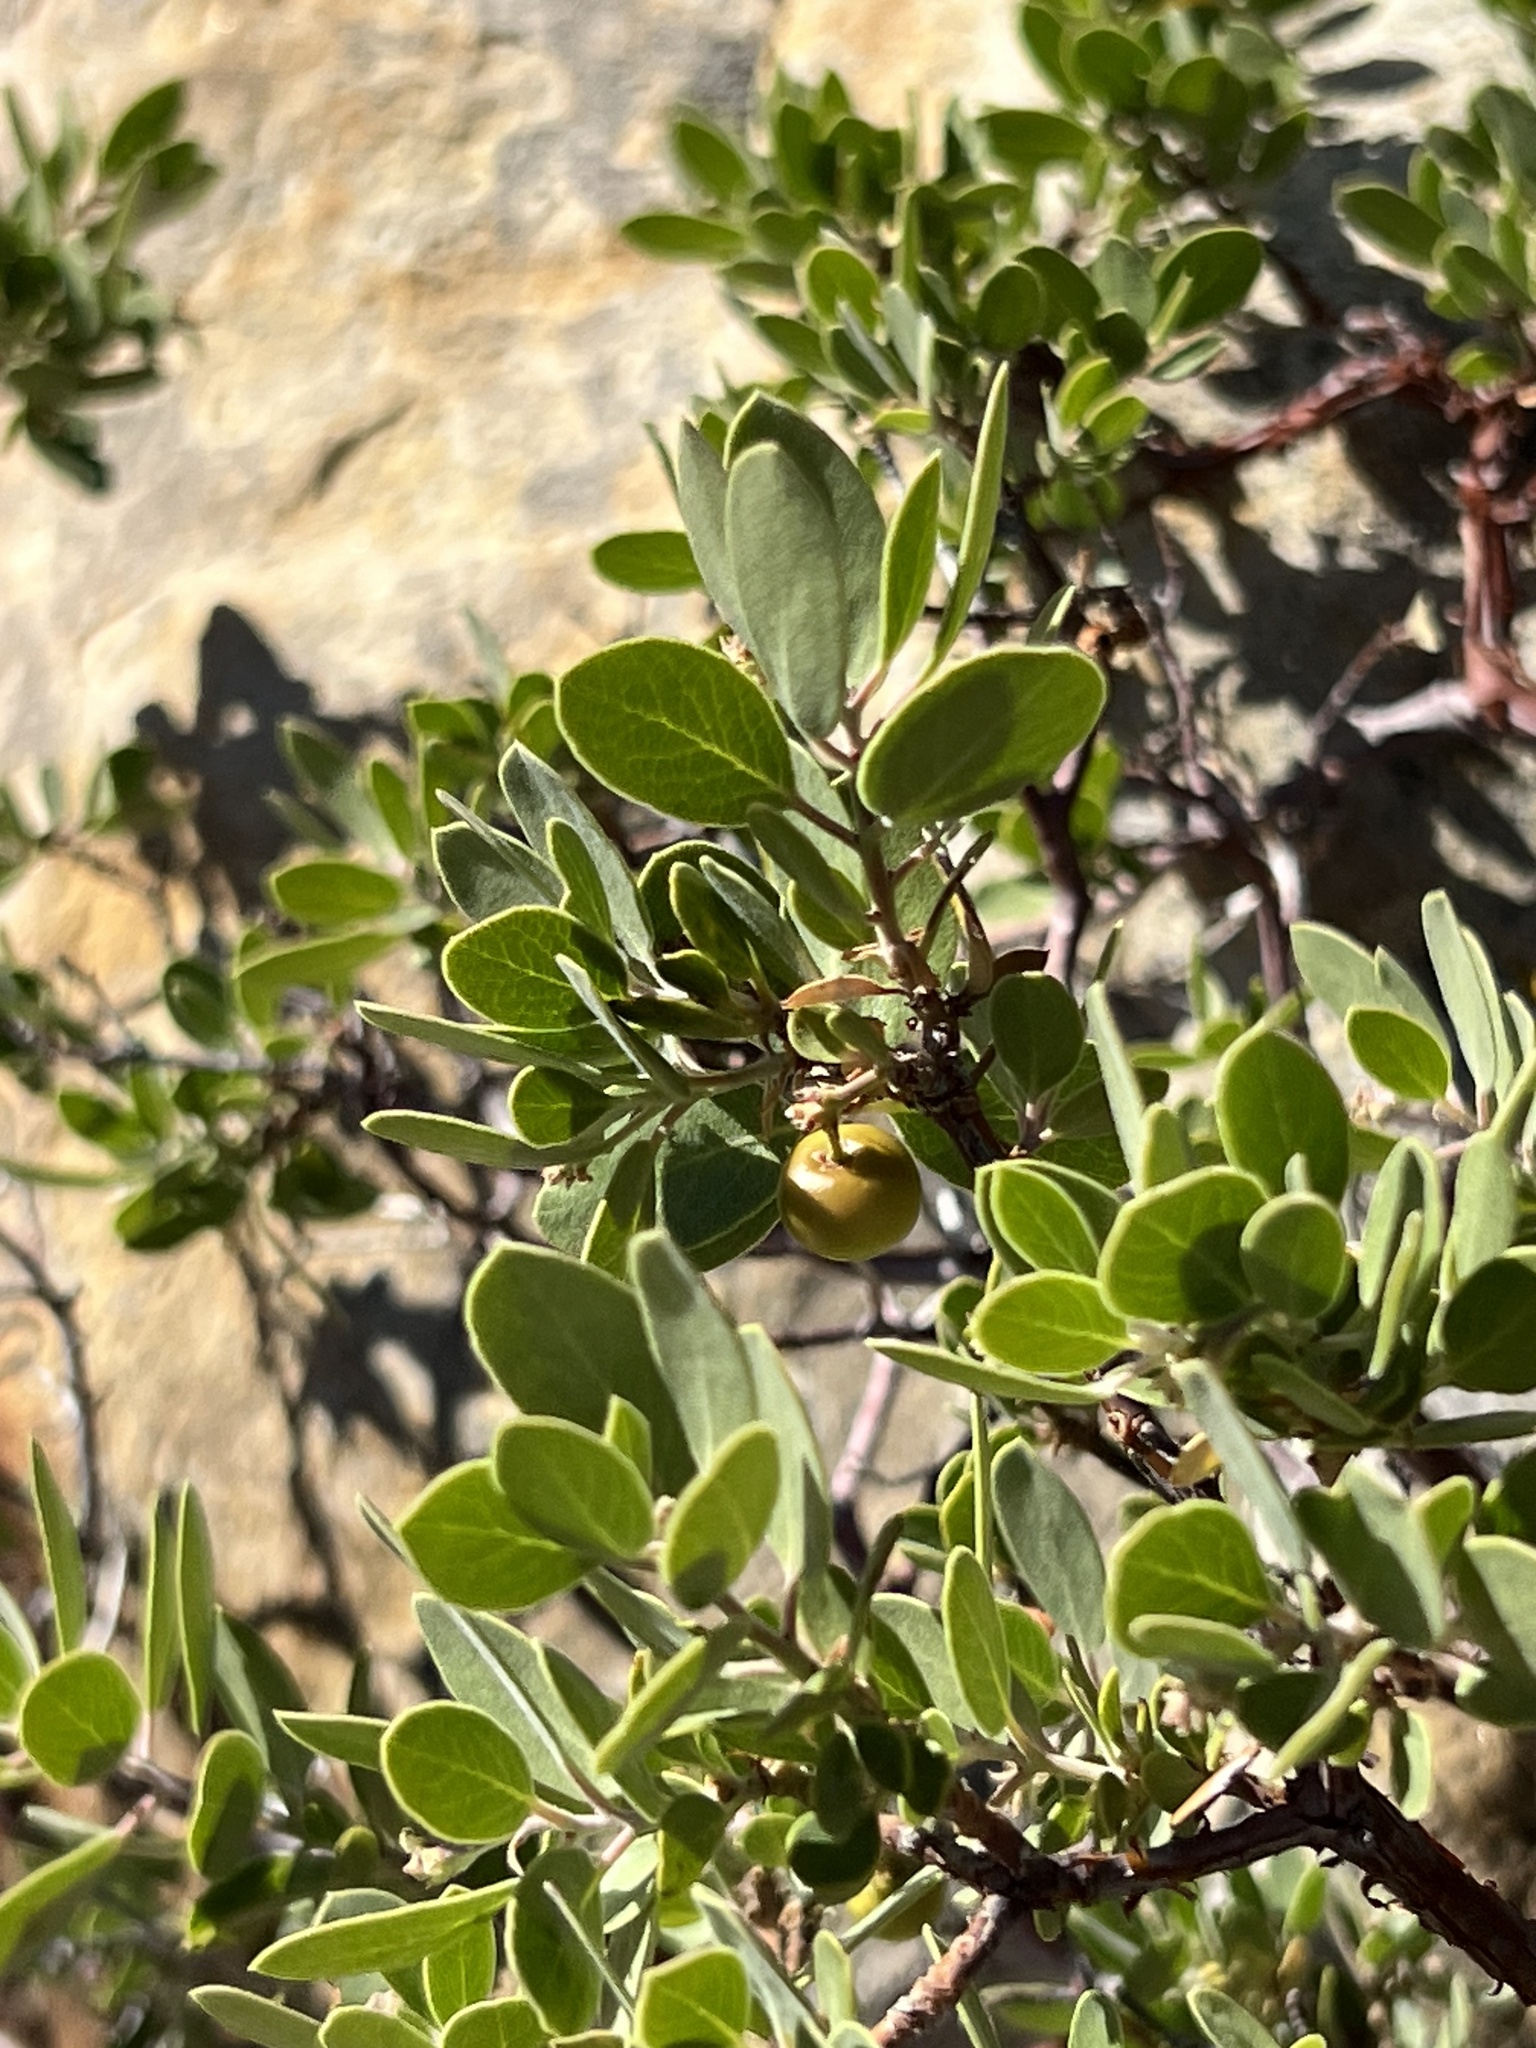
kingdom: Plantae
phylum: Tracheophyta
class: Magnoliopsida
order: Ericales
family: Ericaceae
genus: Arctostaphylos
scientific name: Arctostaphylos pungens
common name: Mexican manzanita
